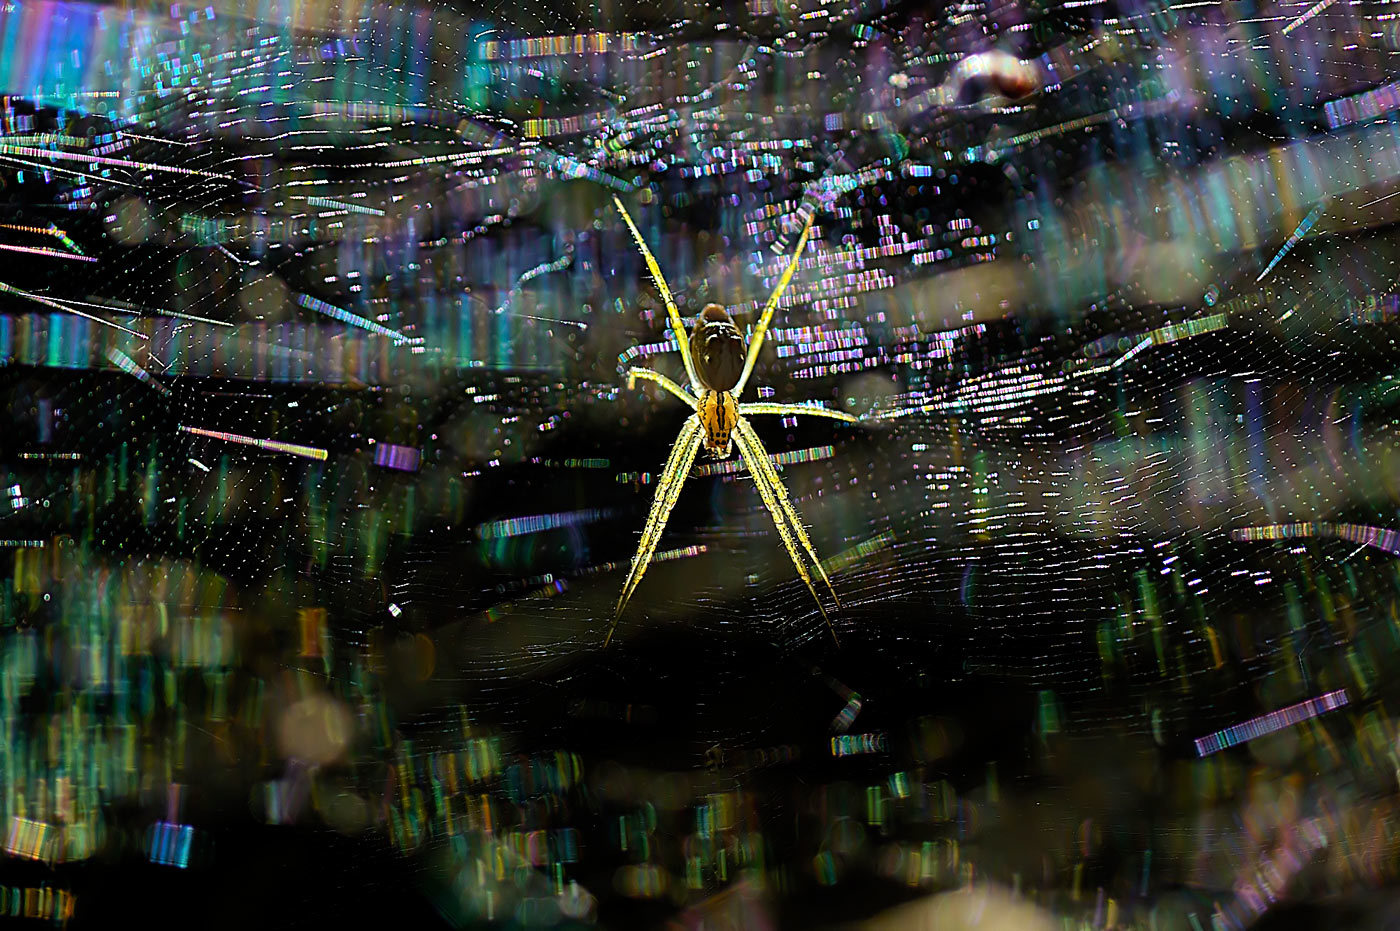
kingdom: Animalia
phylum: Arthropoda
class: Arachnida
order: Araneae
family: Araneidae
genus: Cyrtophora
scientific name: Cyrtophora cicatrosa
